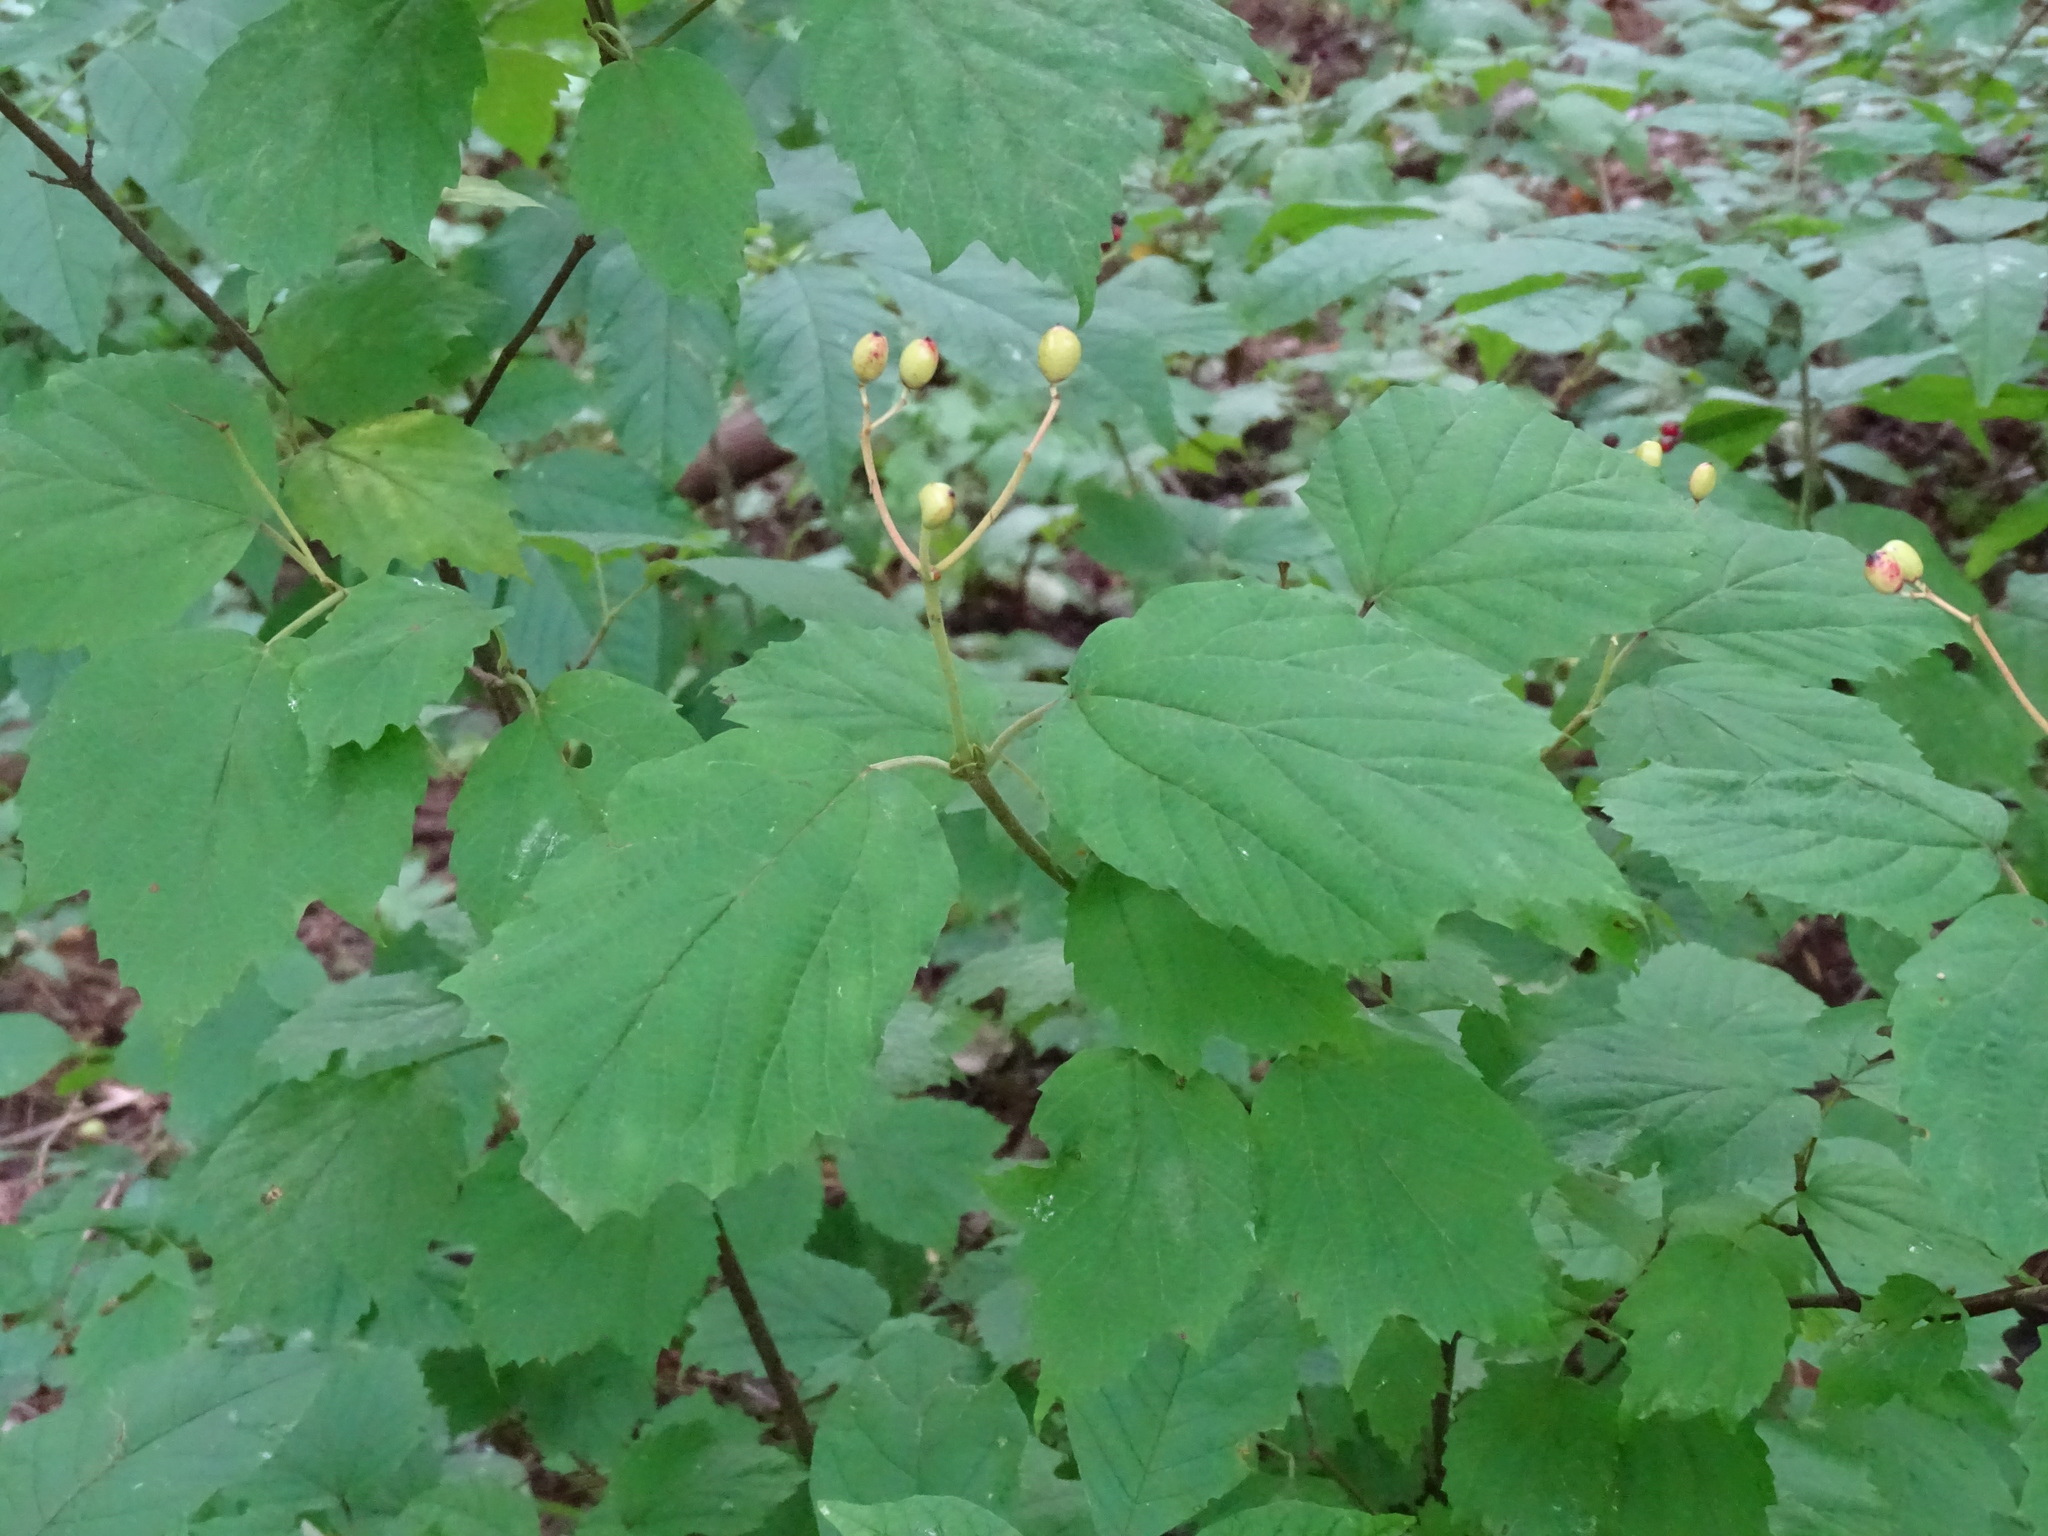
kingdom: Plantae
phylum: Tracheophyta
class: Magnoliopsida
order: Dipsacales
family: Viburnaceae
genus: Viburnum
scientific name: Viburnum acerifolium
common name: Dockmackie
